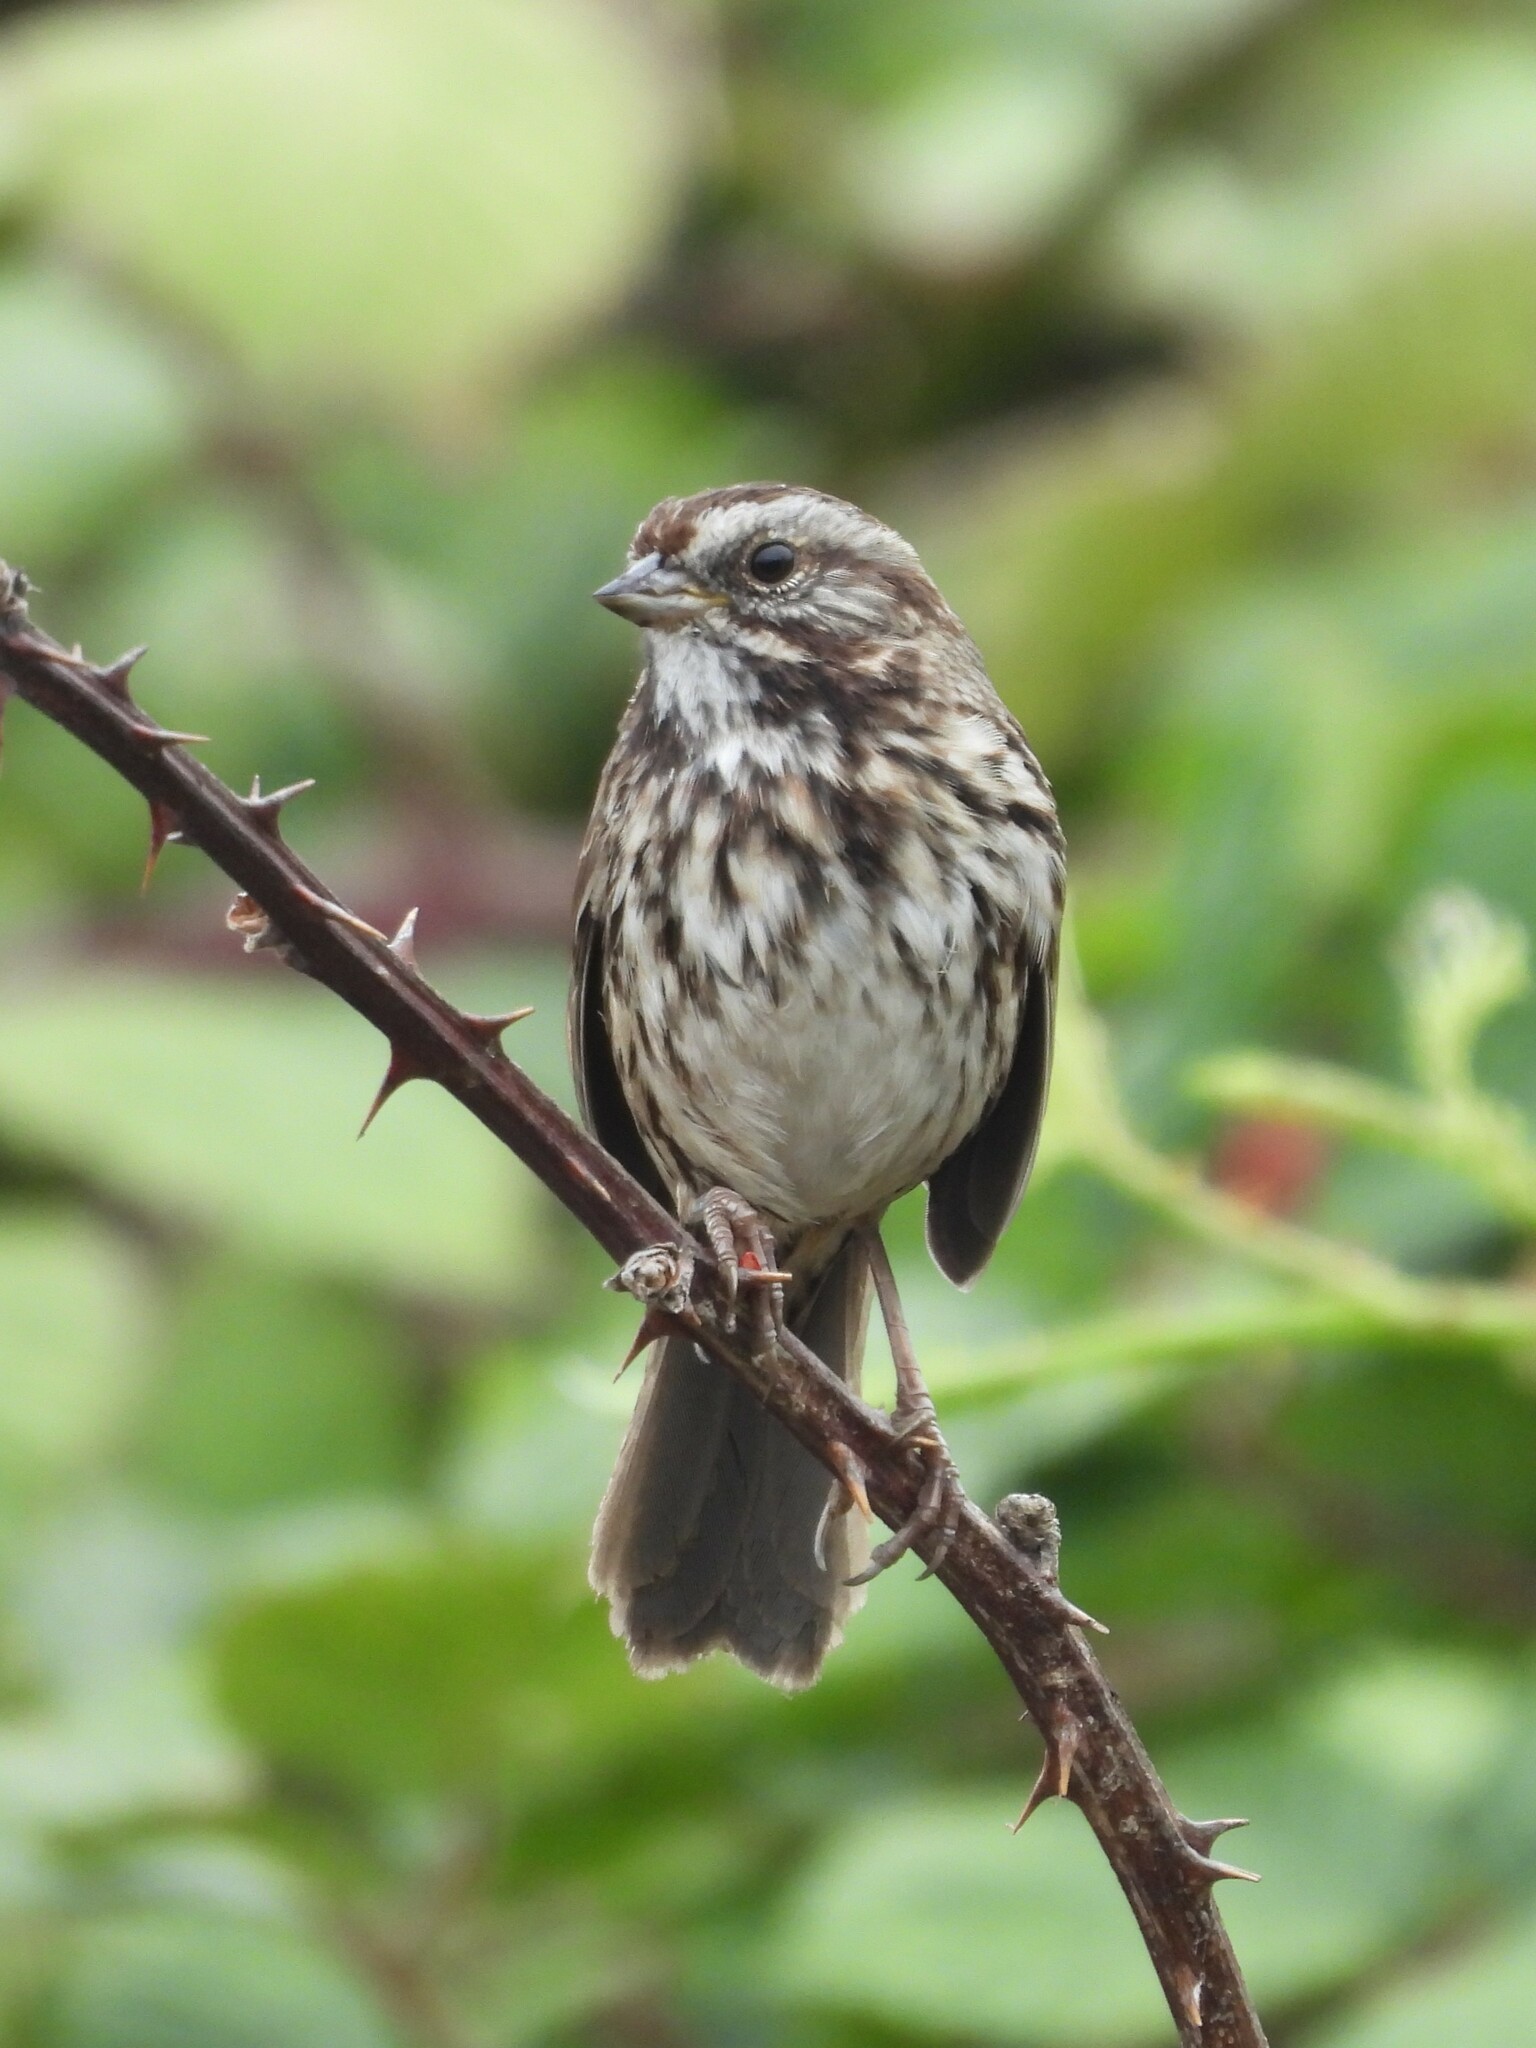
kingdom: Animalia
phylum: Chordata
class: Aves
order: Passeriformes
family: Passerellidae
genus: Melospiza
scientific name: Melospiza melodia
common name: Song sparrow
